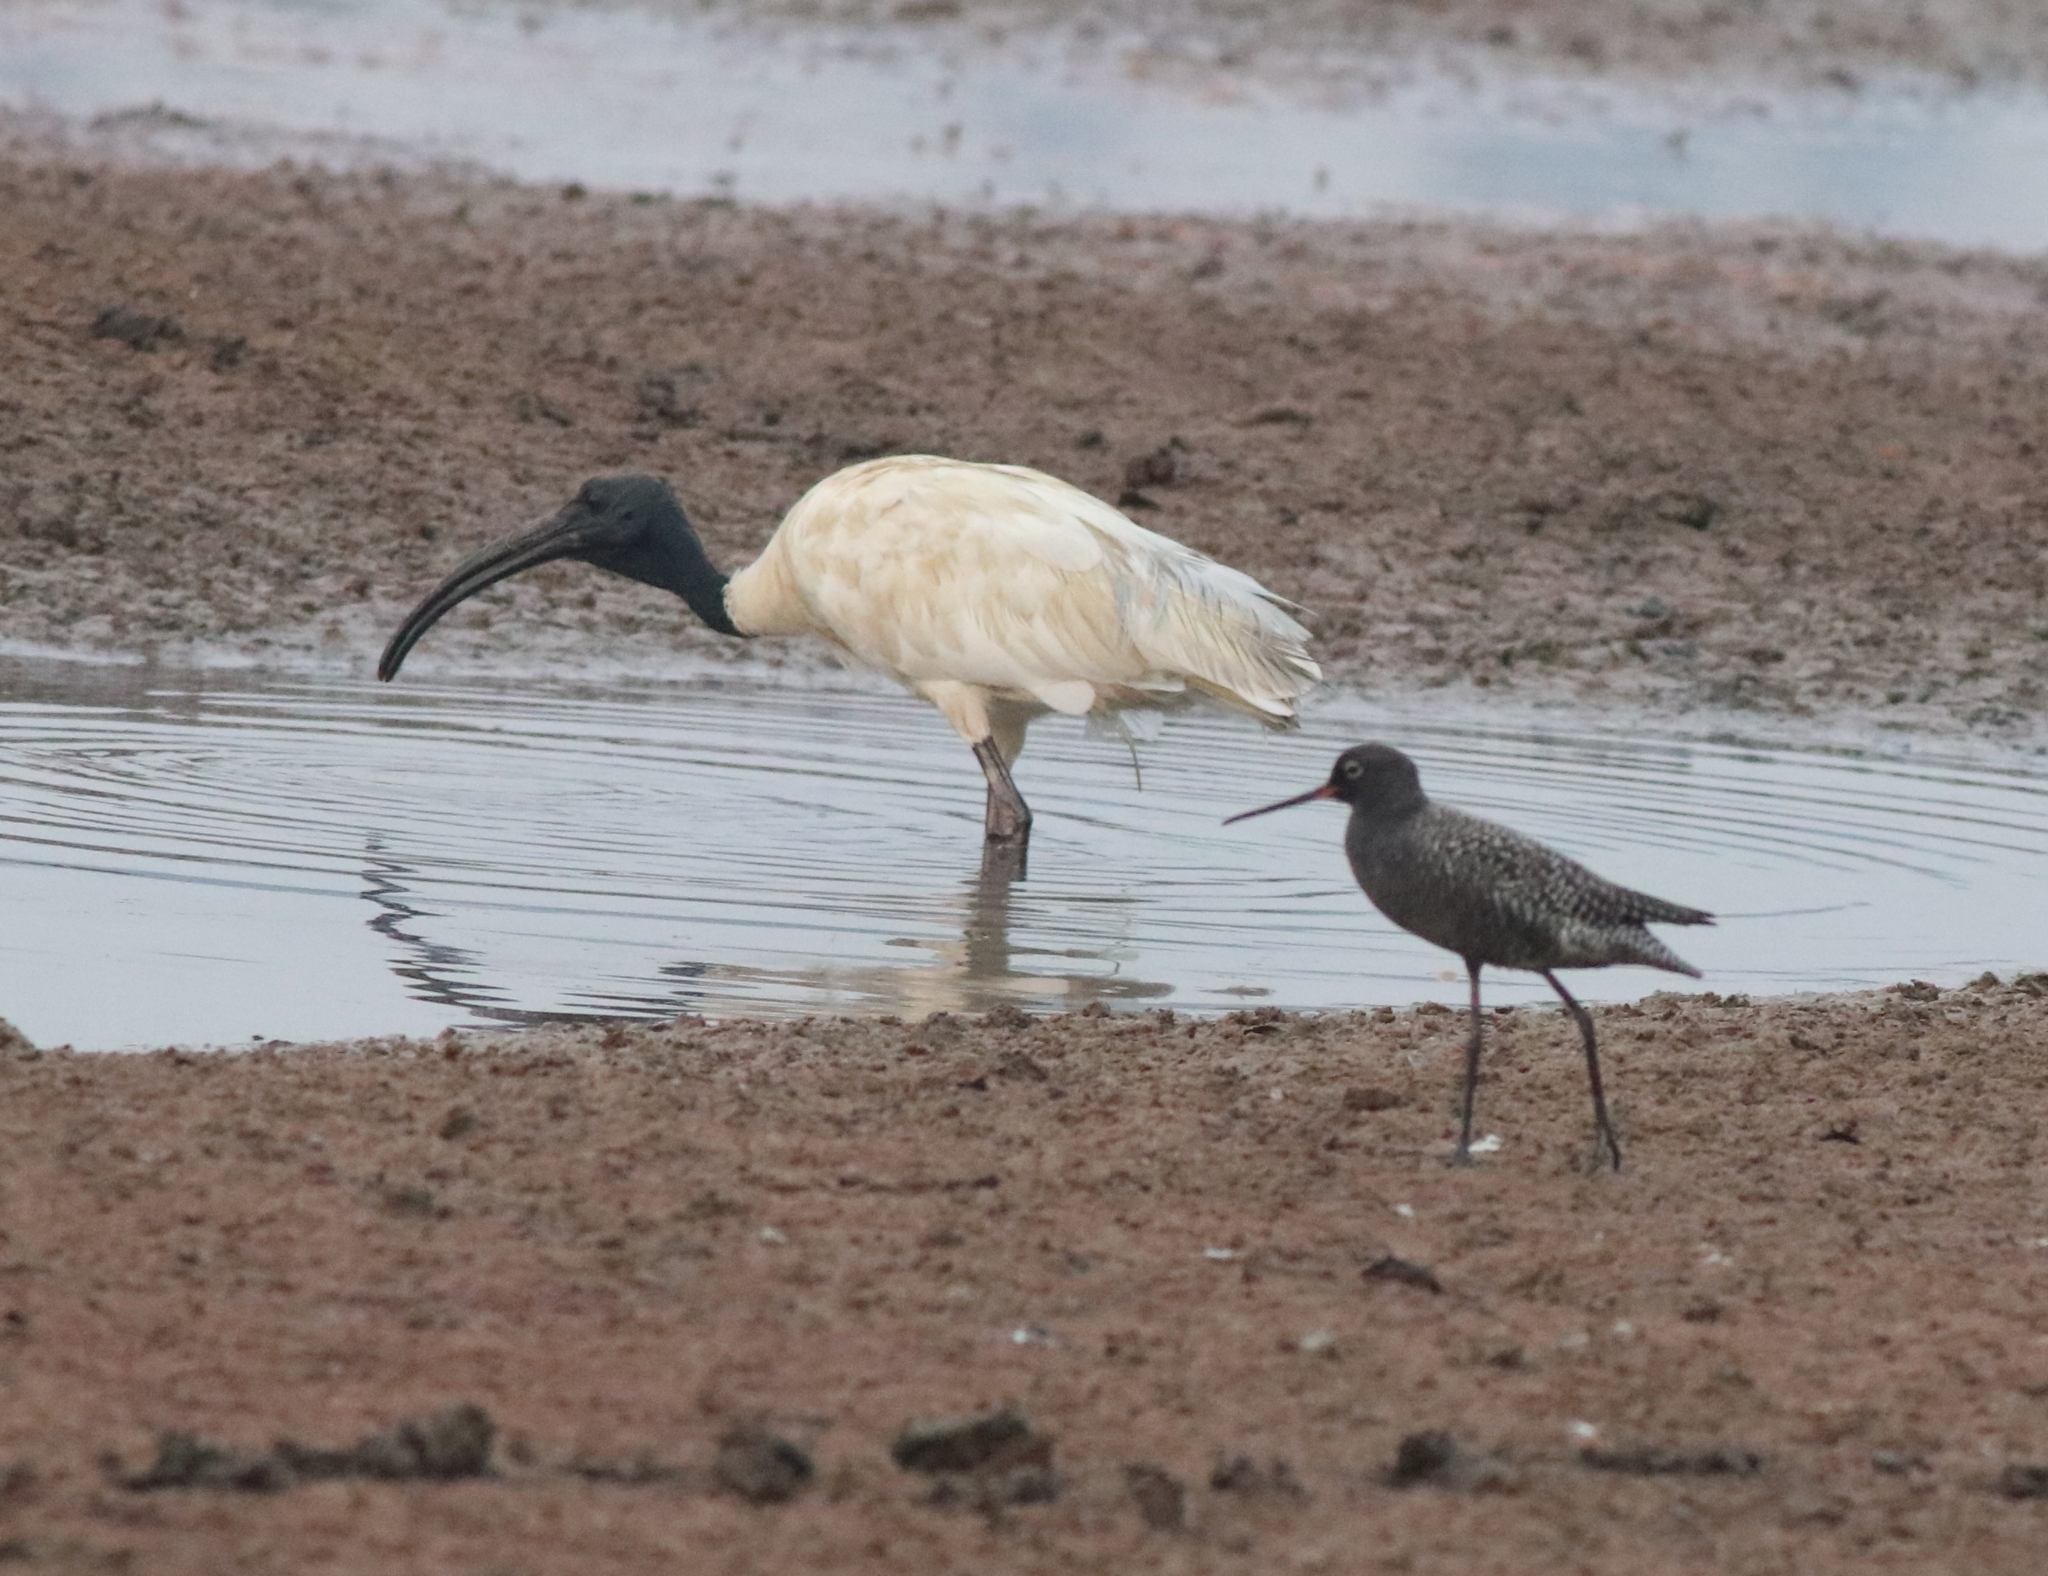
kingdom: Animalia
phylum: Chordata
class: Aves
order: Pelecaniformes
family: Threskiornithidae
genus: Threskiornis
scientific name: Threskiornis melanocephalus
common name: Black-headed ibis
